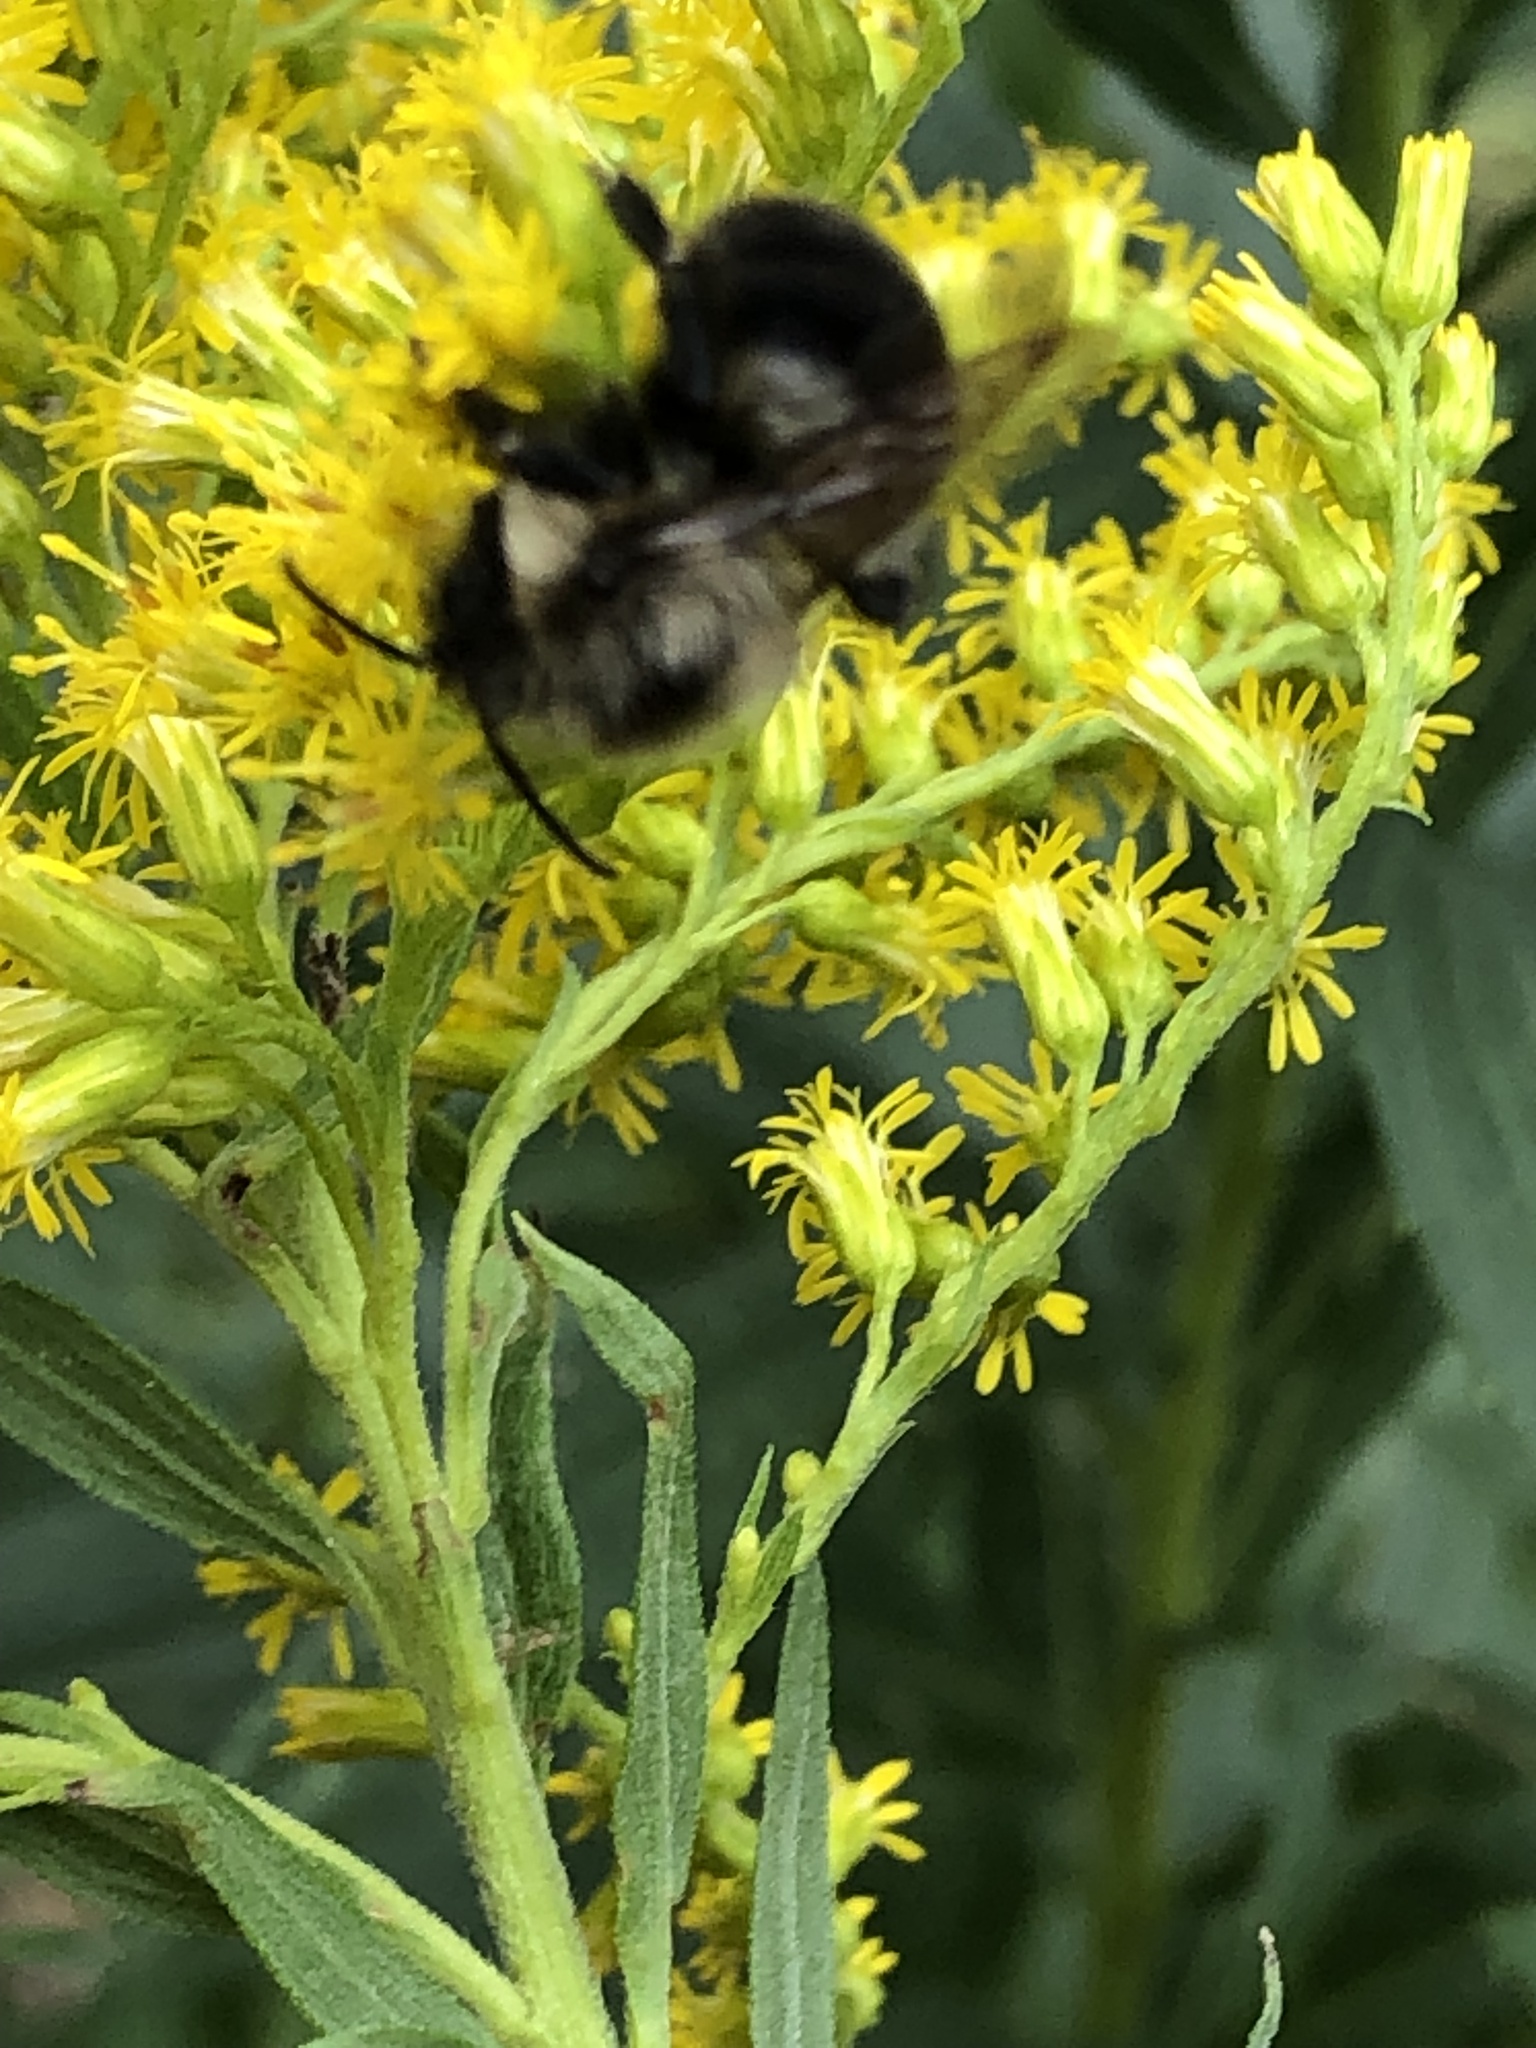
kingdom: Animalia
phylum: Arthropoda
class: Insecta
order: Hymenoptera
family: Apidae
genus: Bombus
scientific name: Bombus impatiens
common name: Common eastern bumble bee
